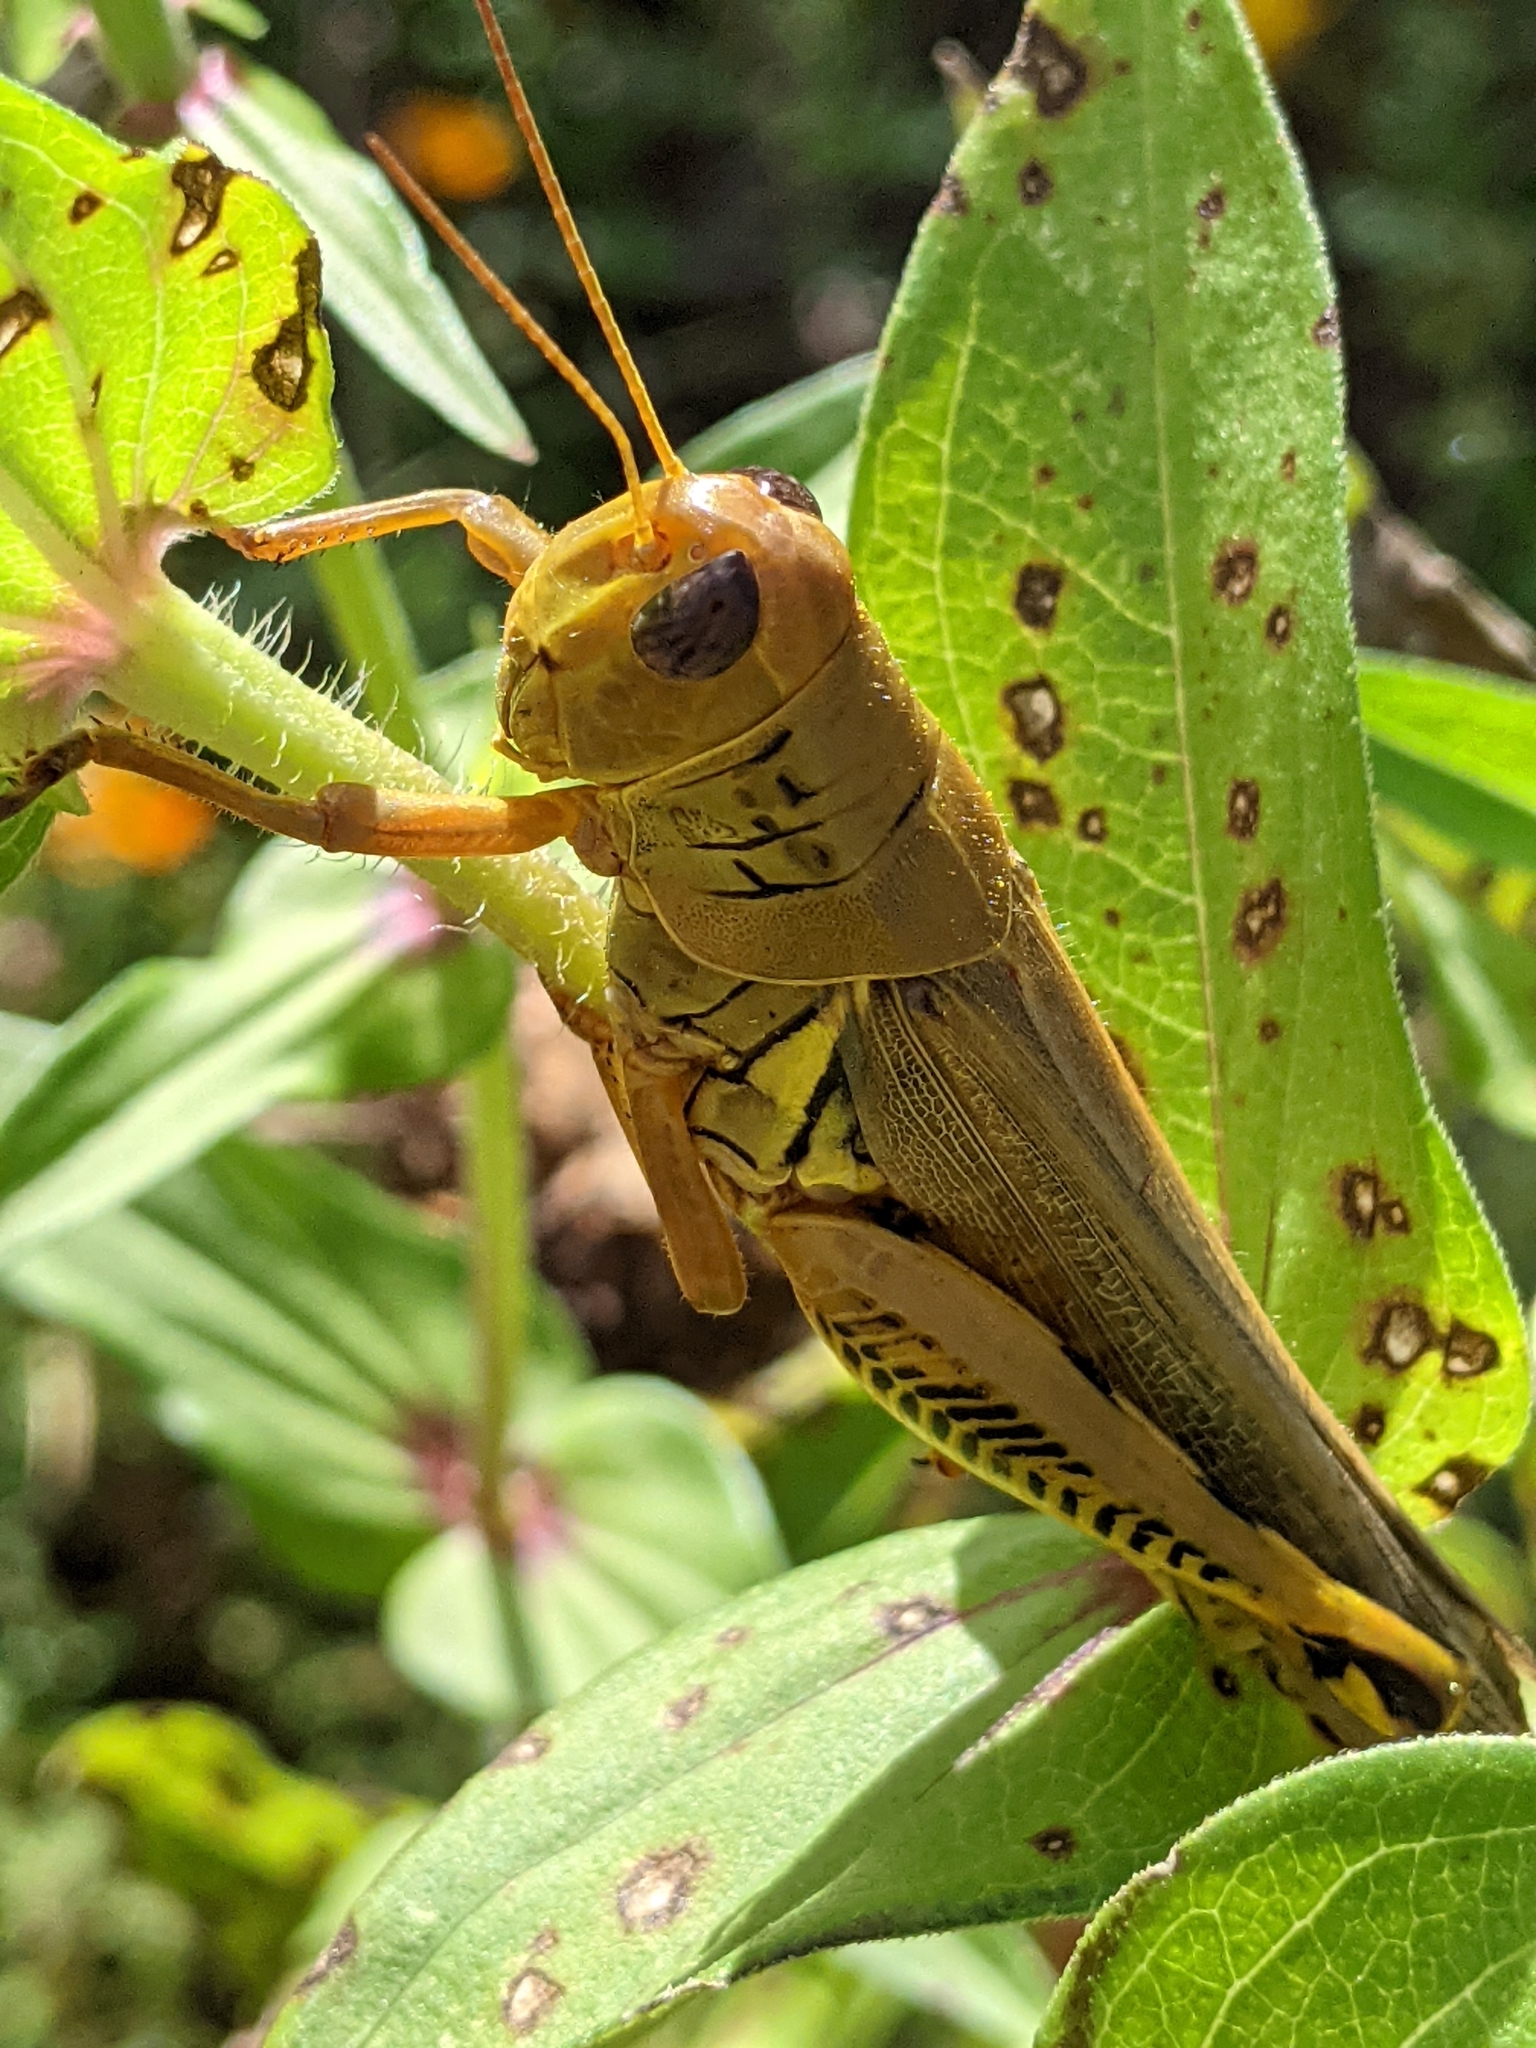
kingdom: Animalia
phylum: Arthropoda
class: Insecta
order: Orthoptera
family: Acrididae
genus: Melanoplus
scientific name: Melanoplus differentialis
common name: Differential grasshopper
